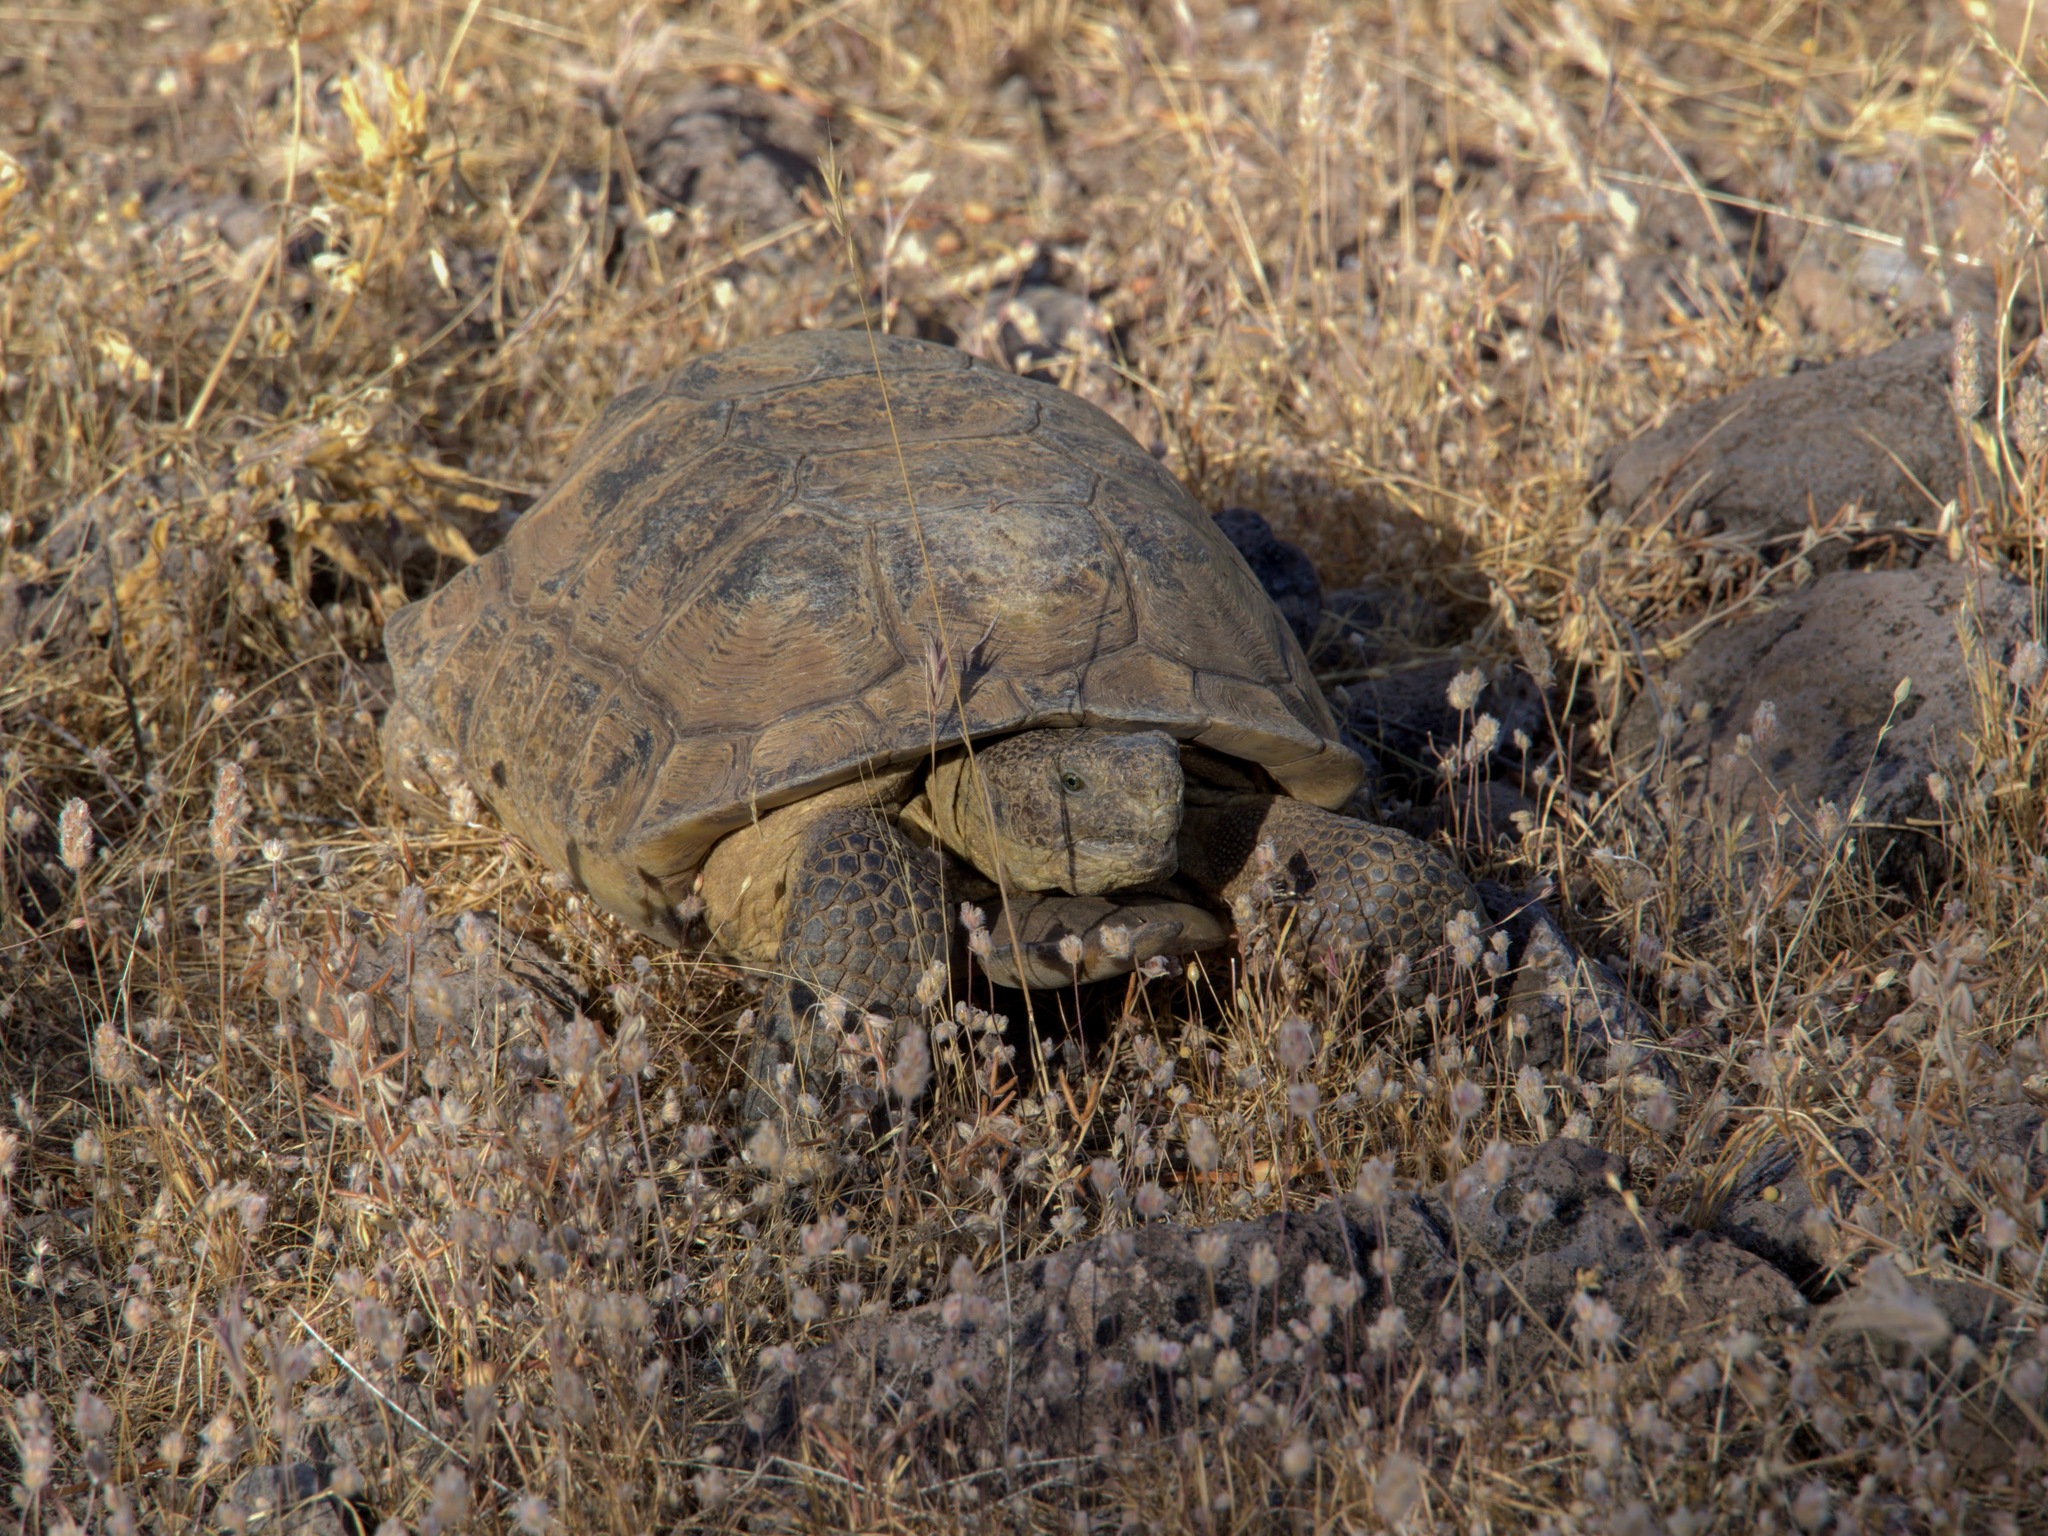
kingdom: Animalia
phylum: Chordata
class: Testudines
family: Testudinidae
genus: Gopherus
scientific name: Gopherus morafkai
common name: Sonoran desert tortoise
